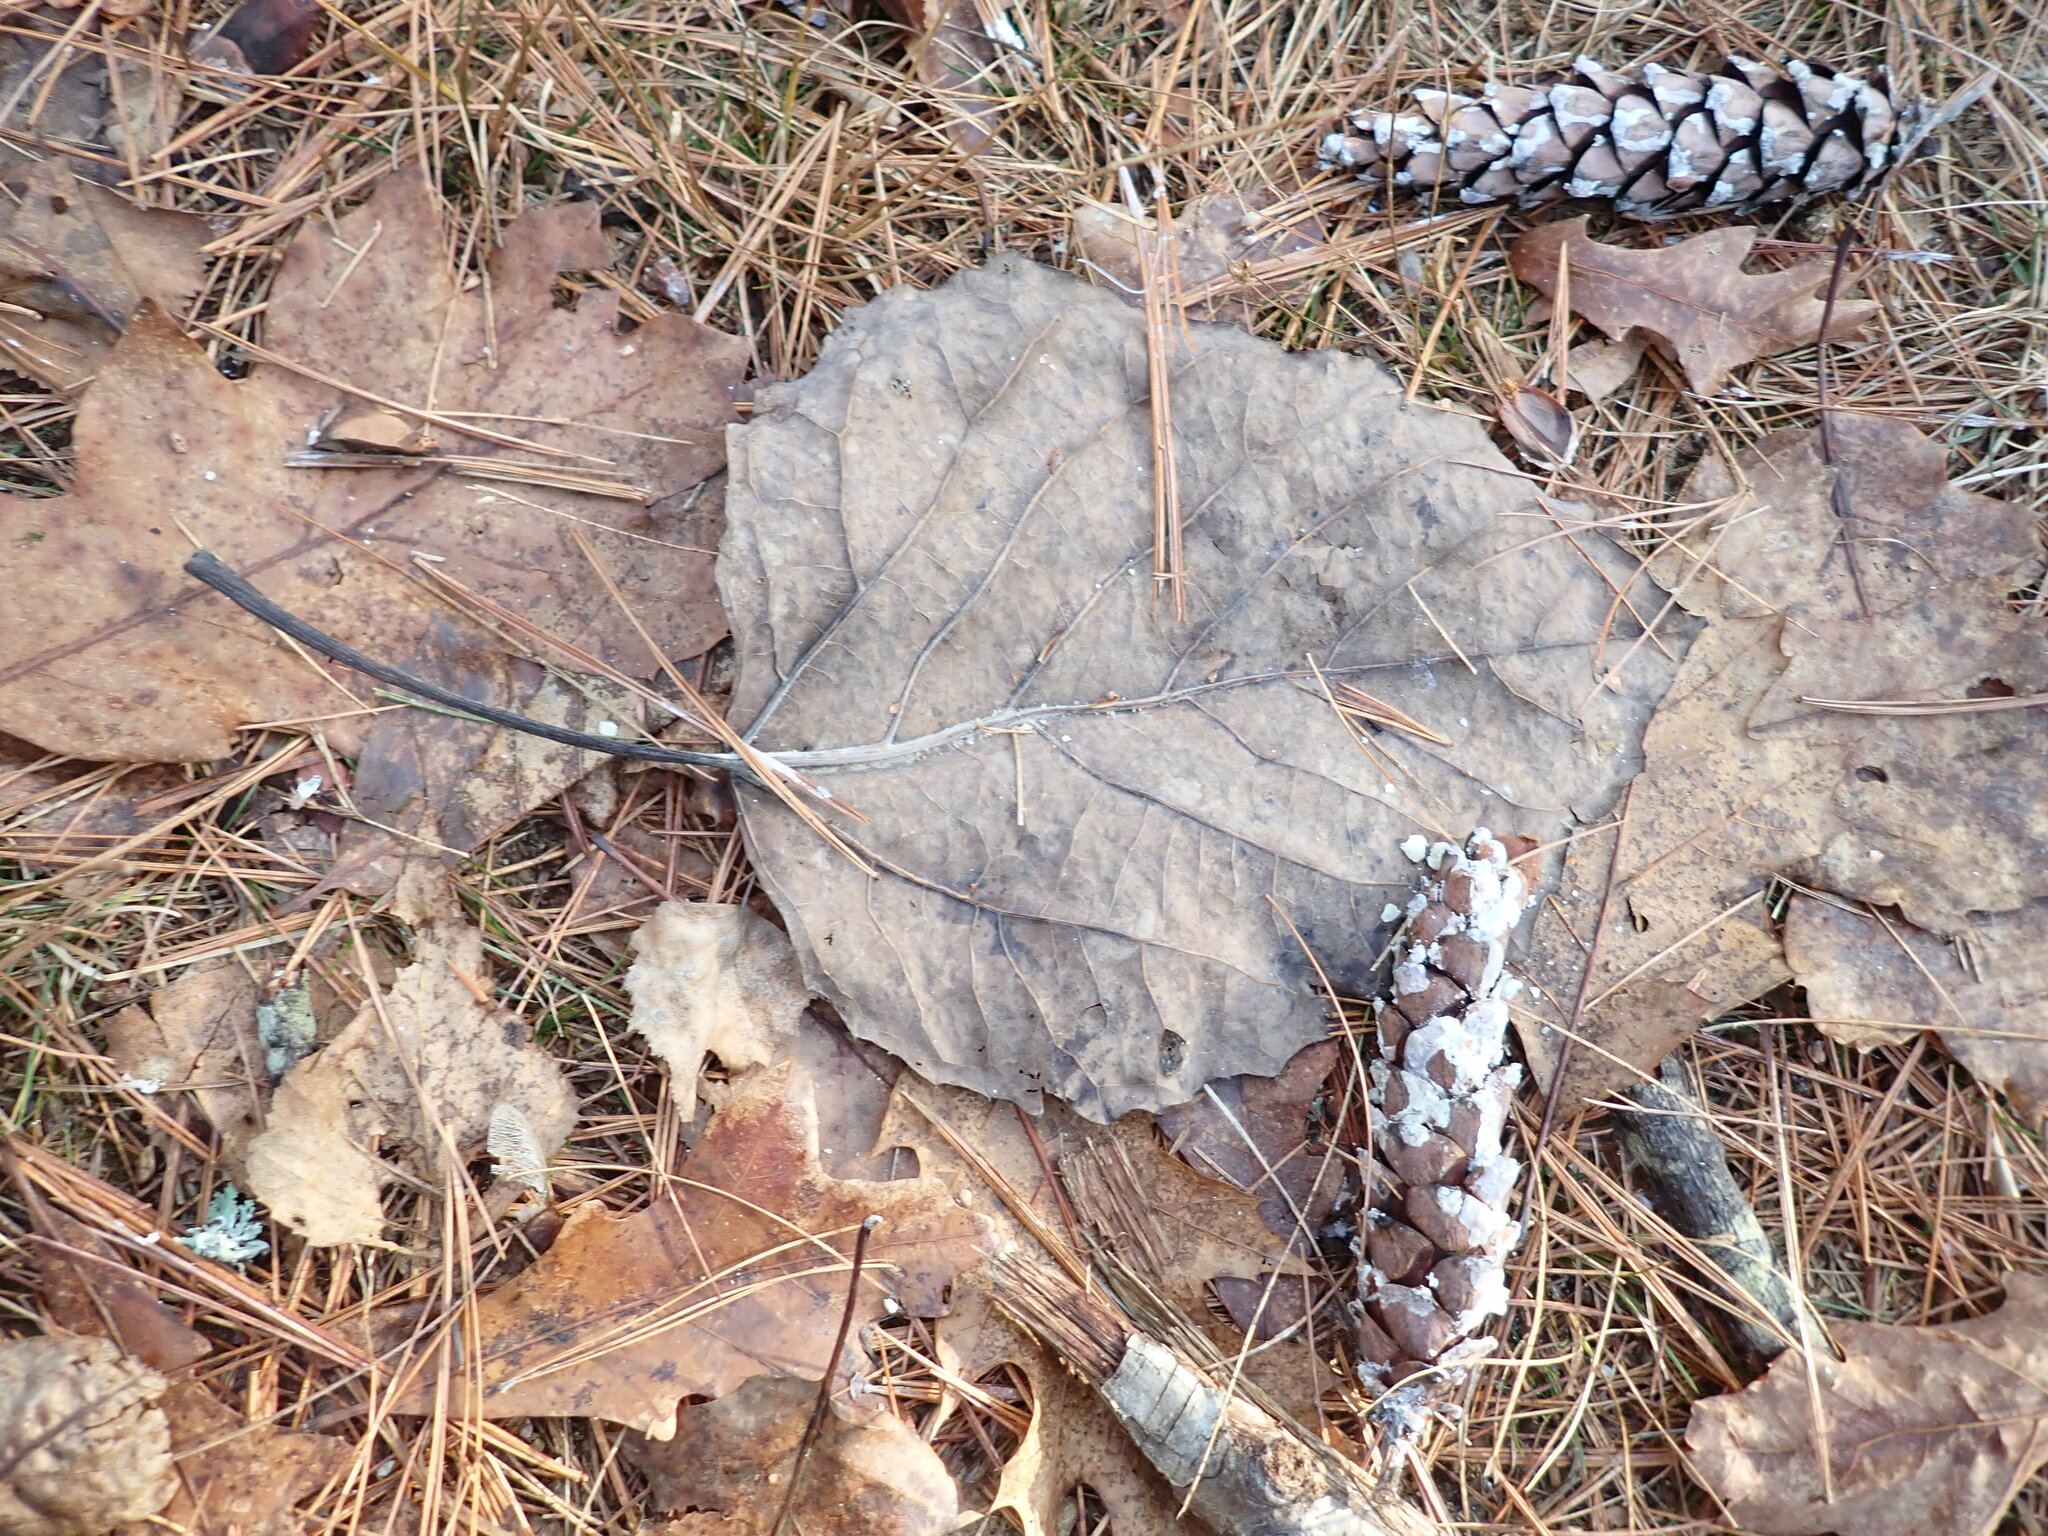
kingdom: Plantae
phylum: Tracheophyta
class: Magnoliopsida
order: Malpighiales
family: Salicaceae
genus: Populus
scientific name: Populus grandidentata
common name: Bigtooth aspen
